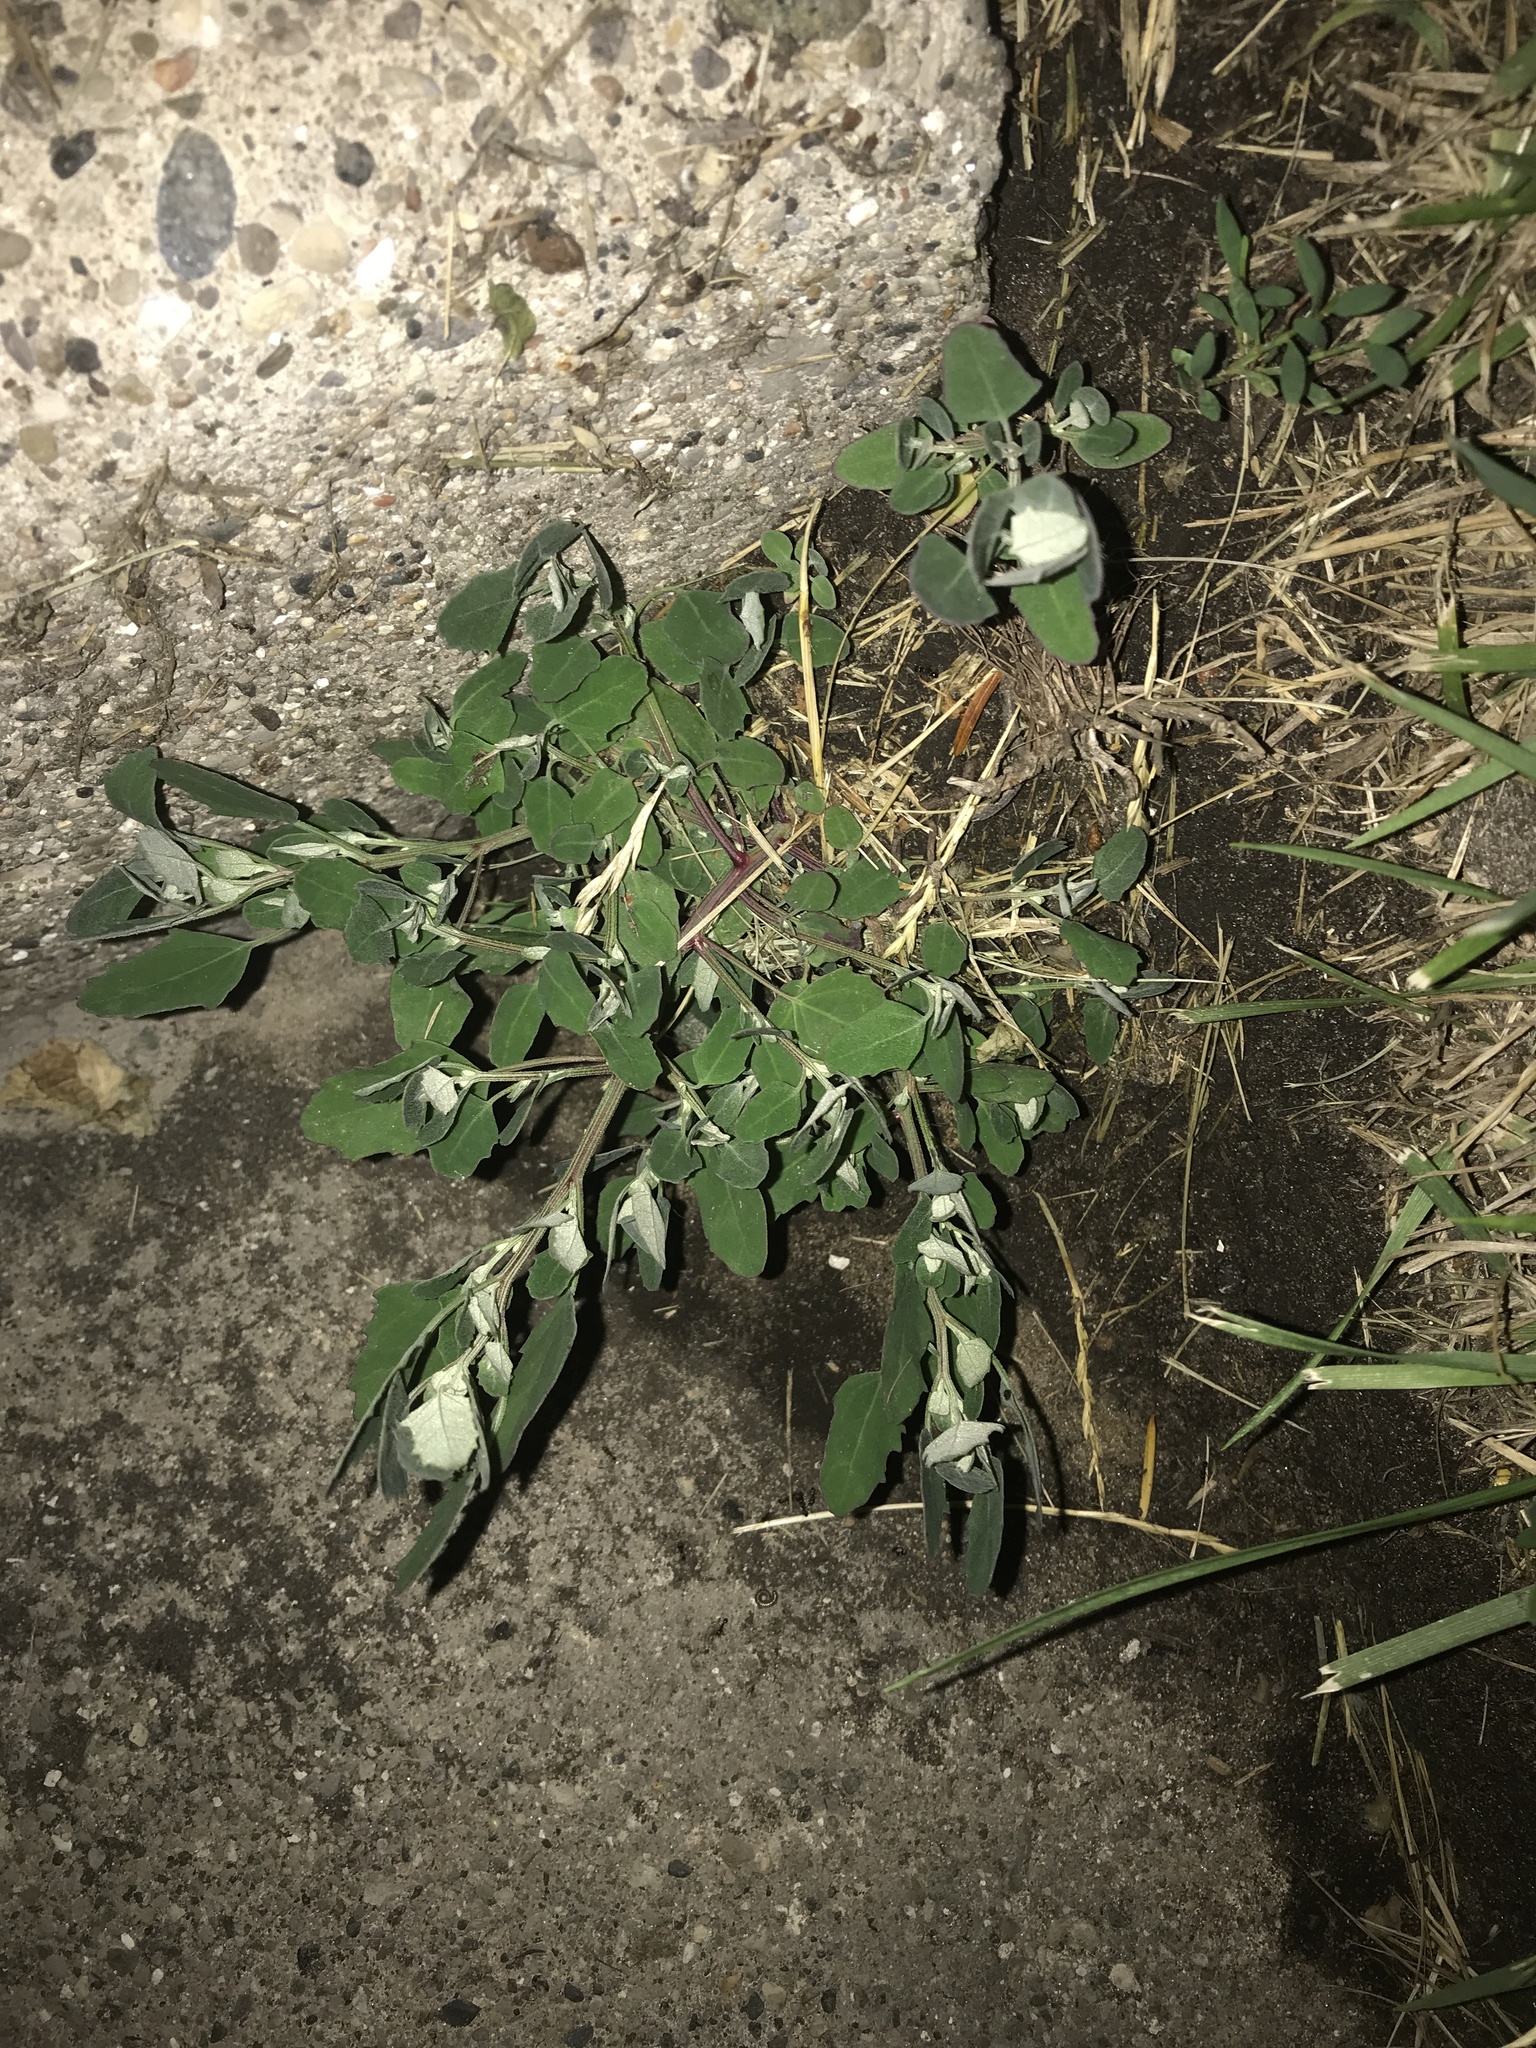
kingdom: Plantae
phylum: Tracheophyta
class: Magnoliopsida
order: Caryophyllales
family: Amaranthaceae
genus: Chenopodium
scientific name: Chenopodium album
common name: Fat-hen
